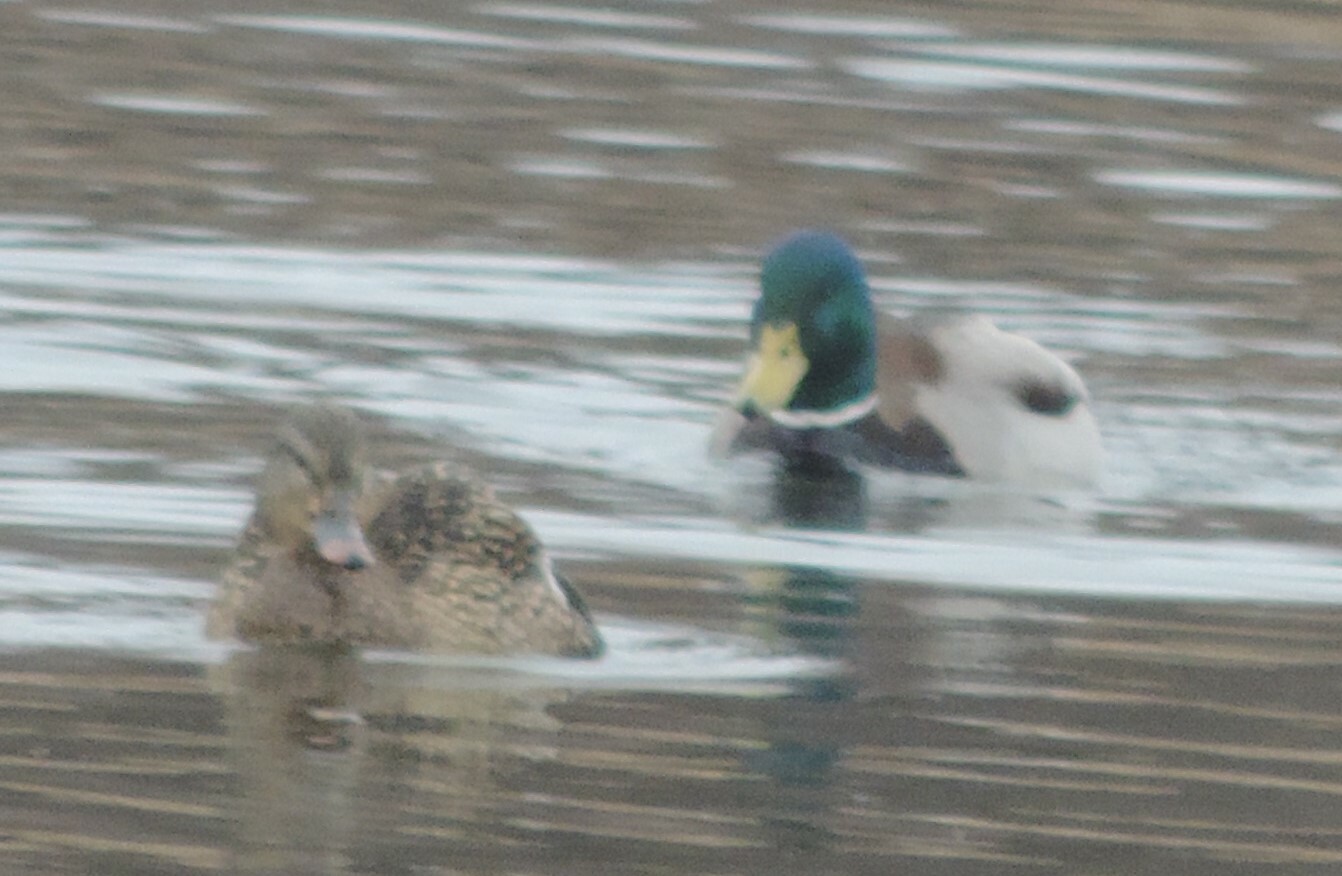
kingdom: Animalia
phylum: Chordata
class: Aves
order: Anseriformes
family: Anatidae
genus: Anas
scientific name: Anas platyrhynchos
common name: Mallard
